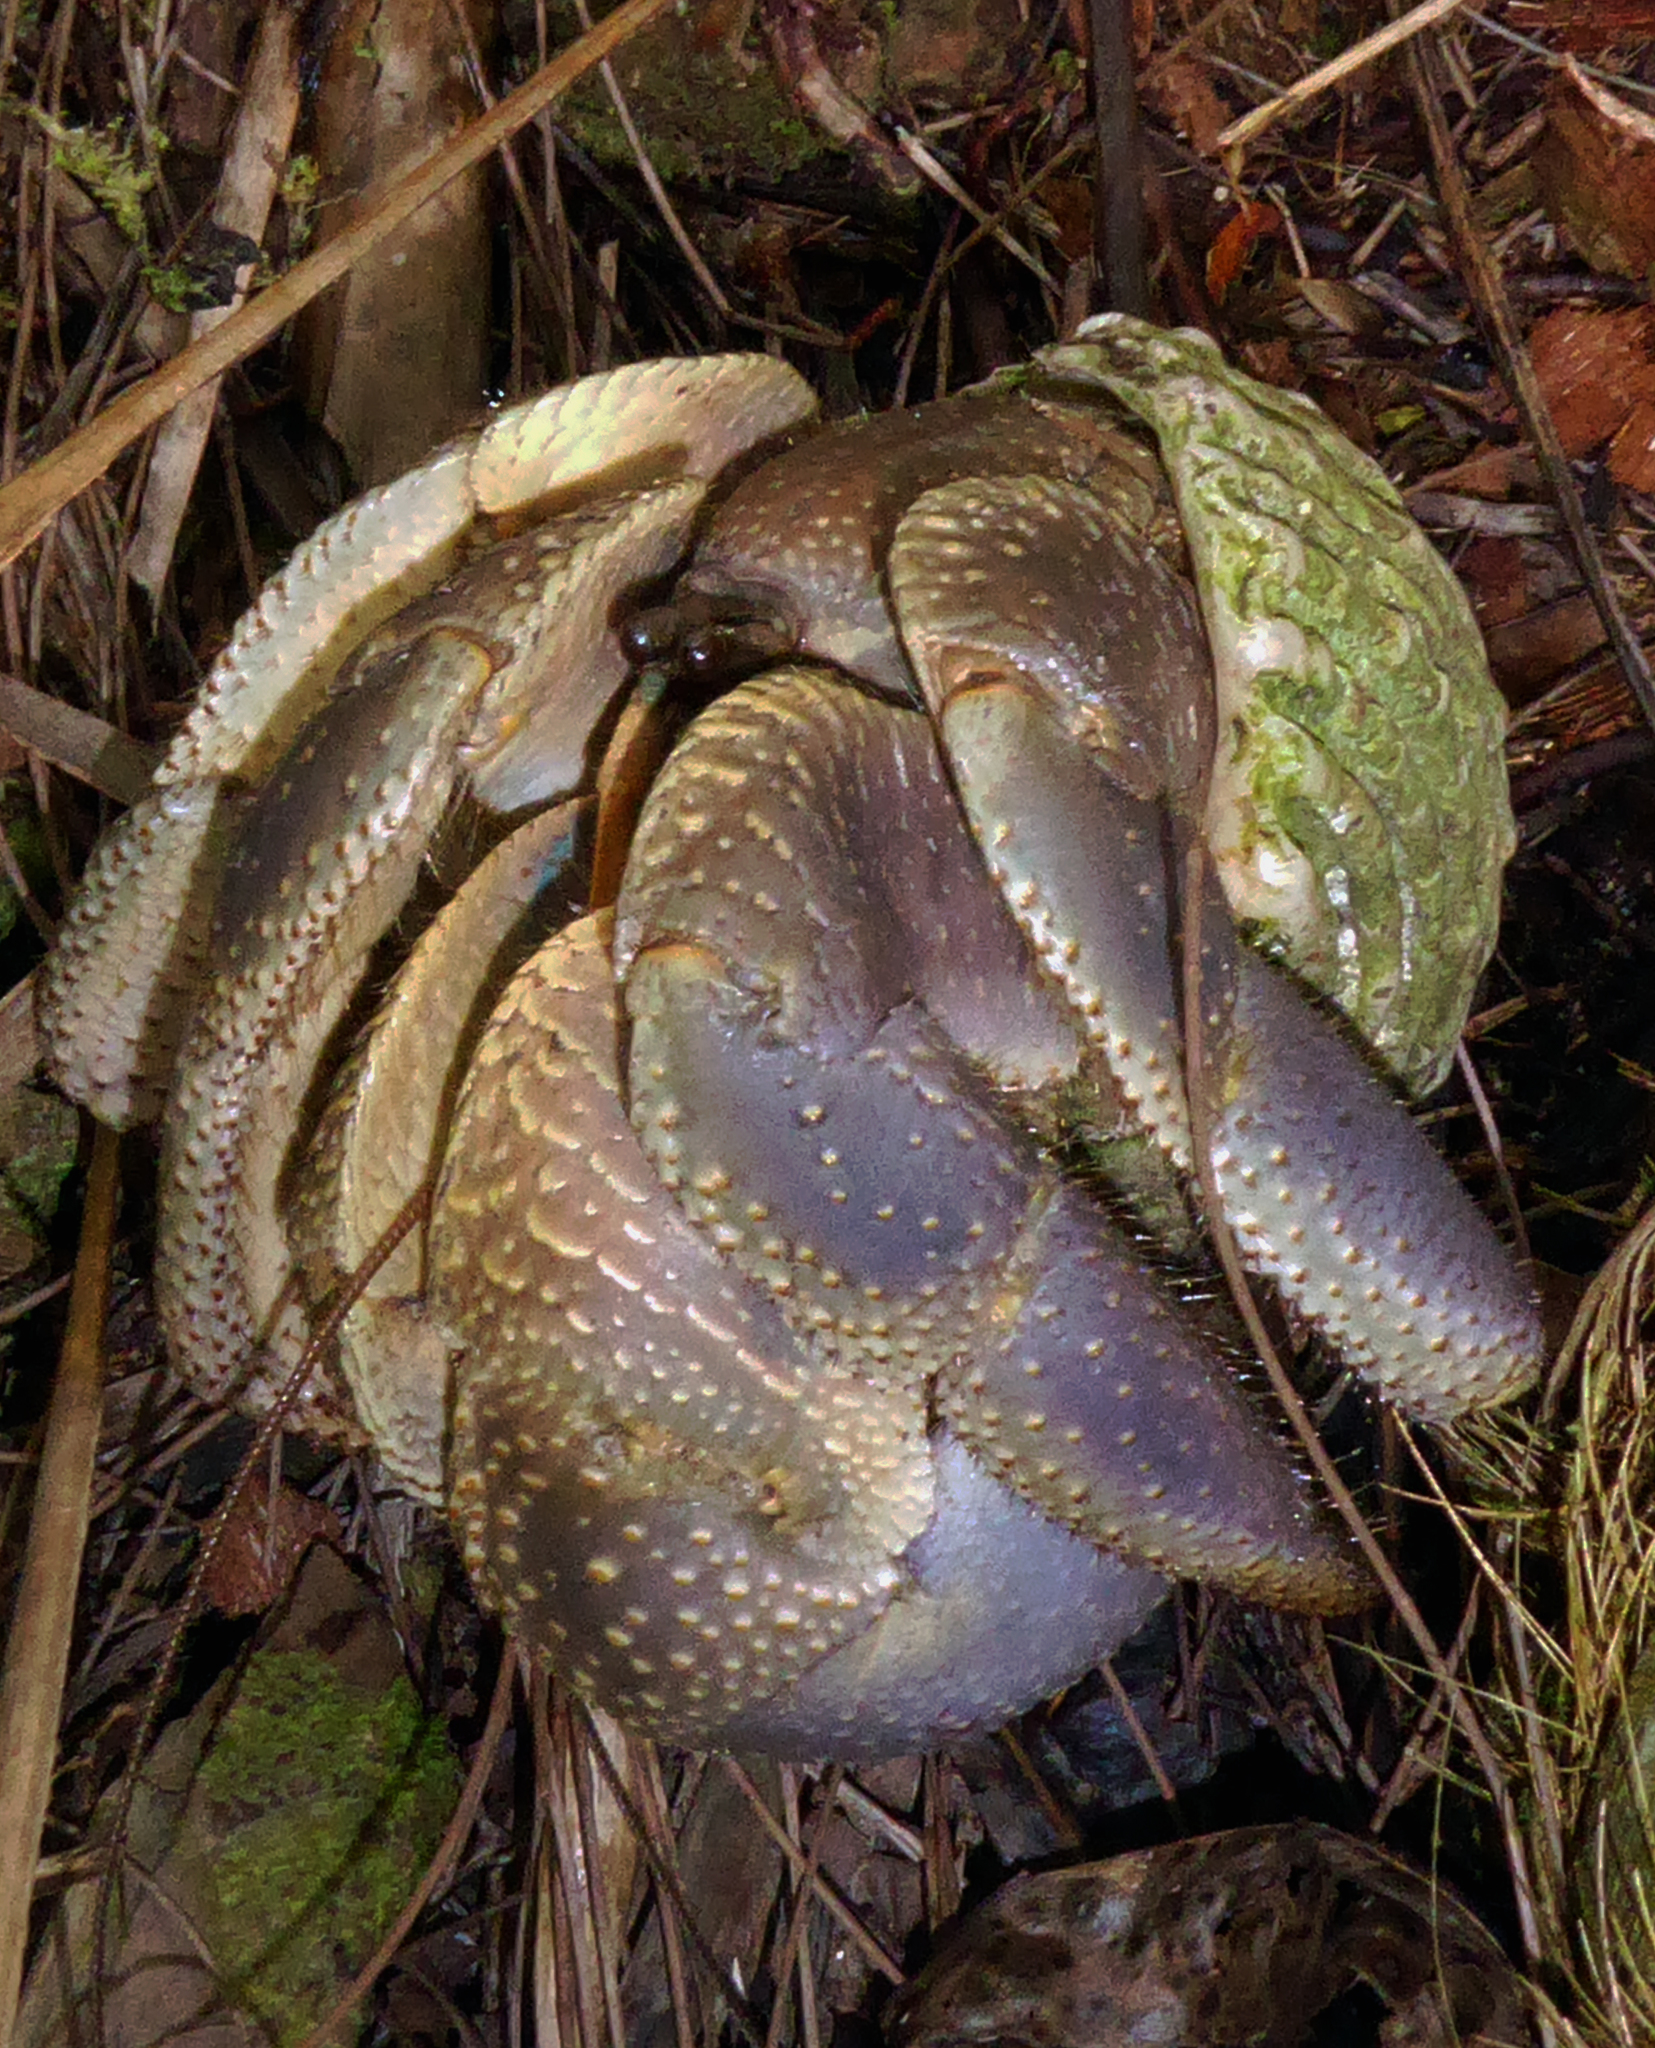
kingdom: Animalia
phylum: Arthropoda
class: Malacostraca
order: Decapoda
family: Coenobitidae
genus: Coenobita
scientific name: Coenobita brevimanus
